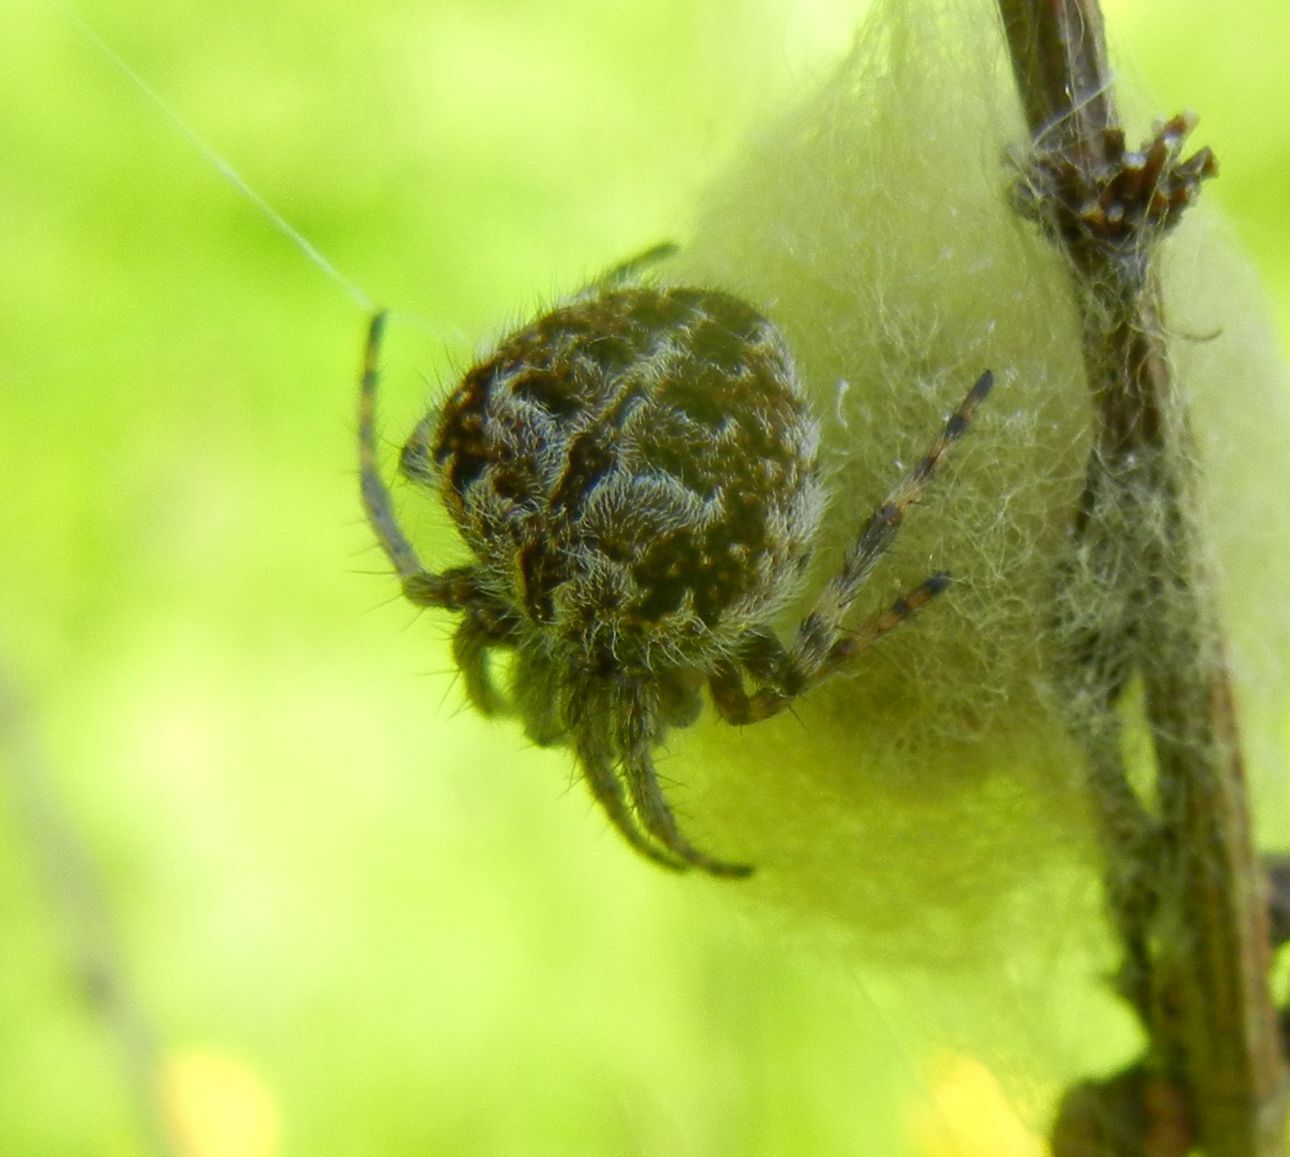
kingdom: Animalia
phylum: Arthropoda
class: Arachnida
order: Araneae
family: Araneidae
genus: Agalenatea
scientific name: Agalenatea redii
